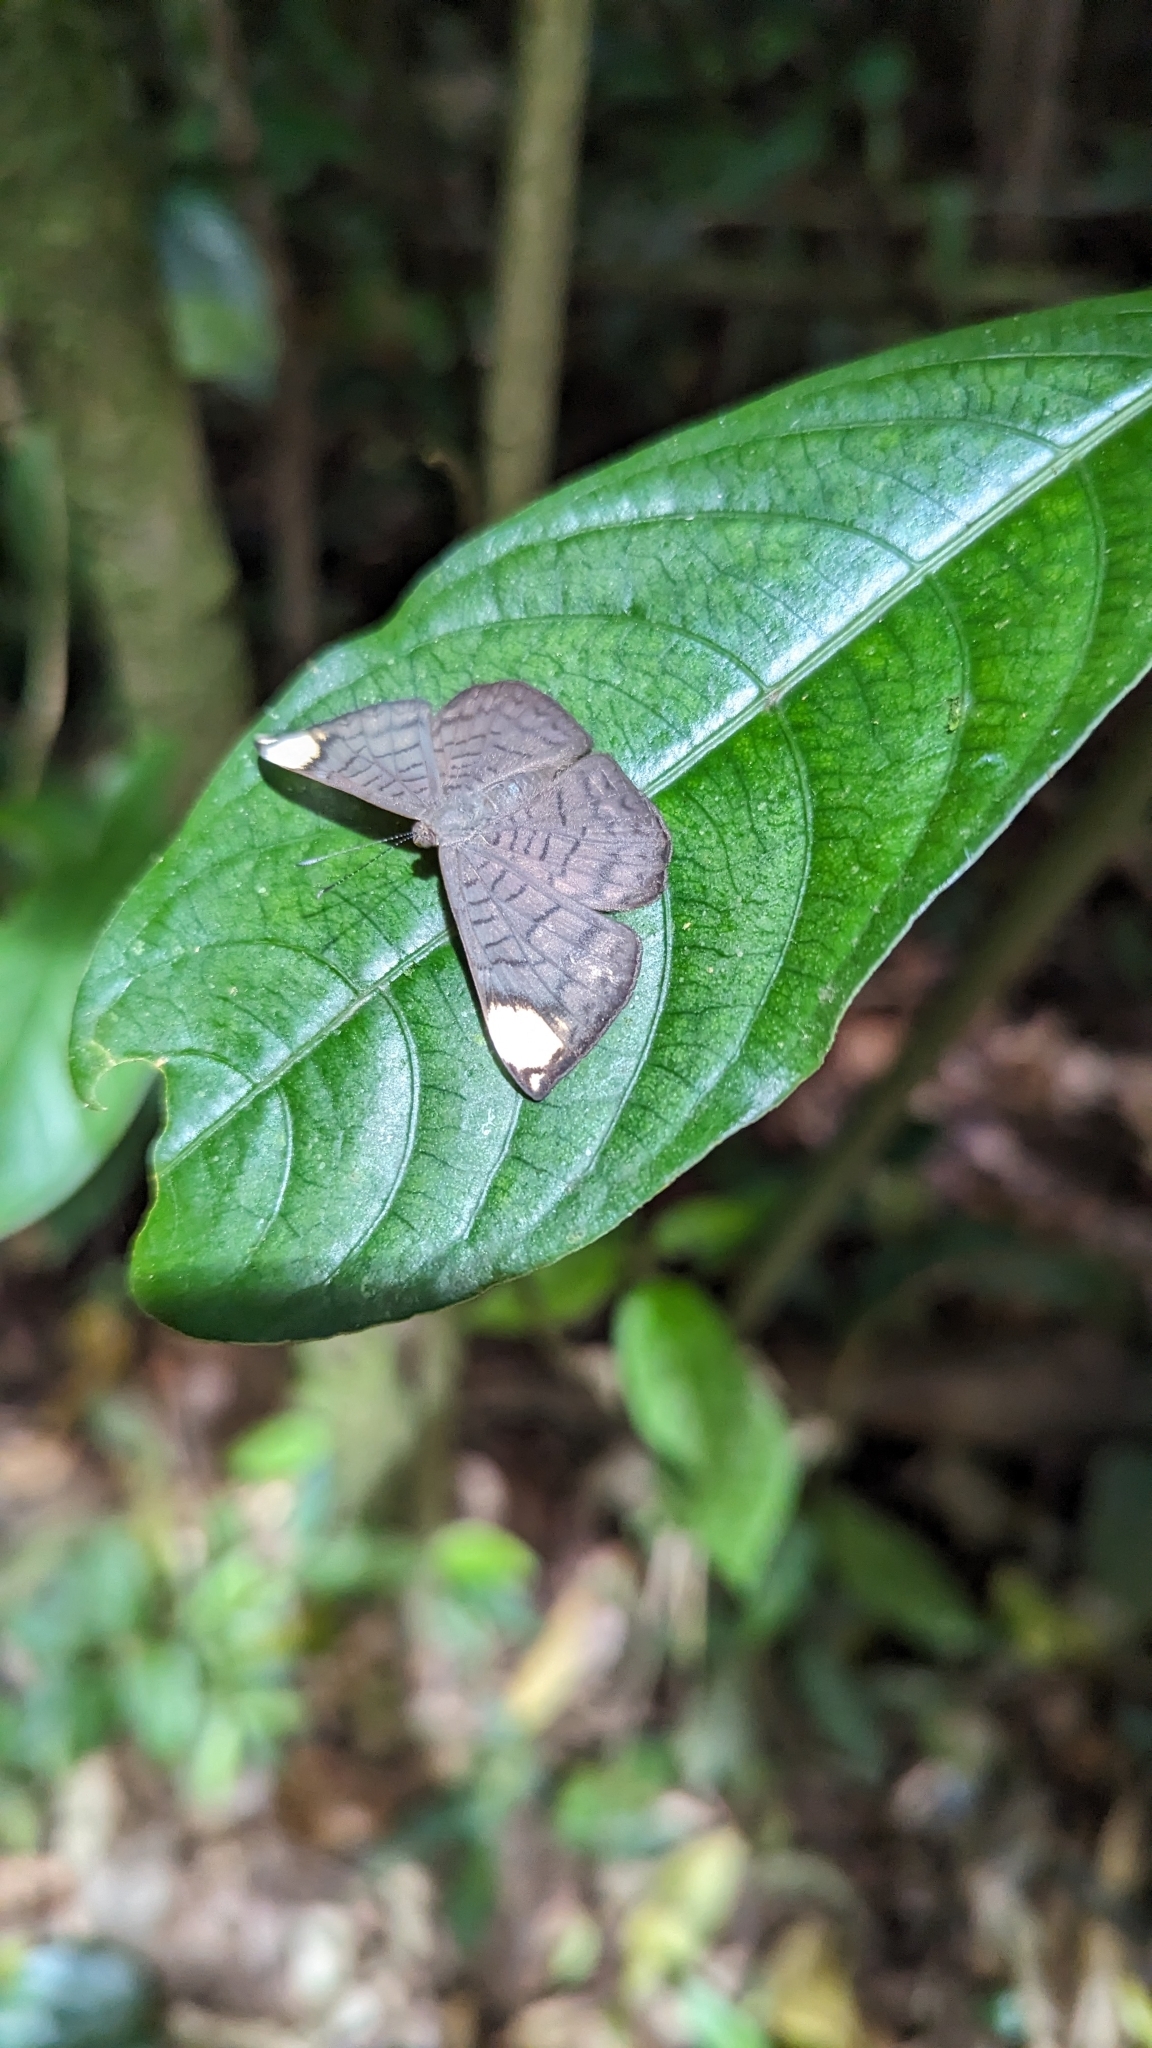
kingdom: Animalia
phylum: Arthropoda
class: Insecta
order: Lepidoptera
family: Lycaenidae
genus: Emesis
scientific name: Emesis aurimna
